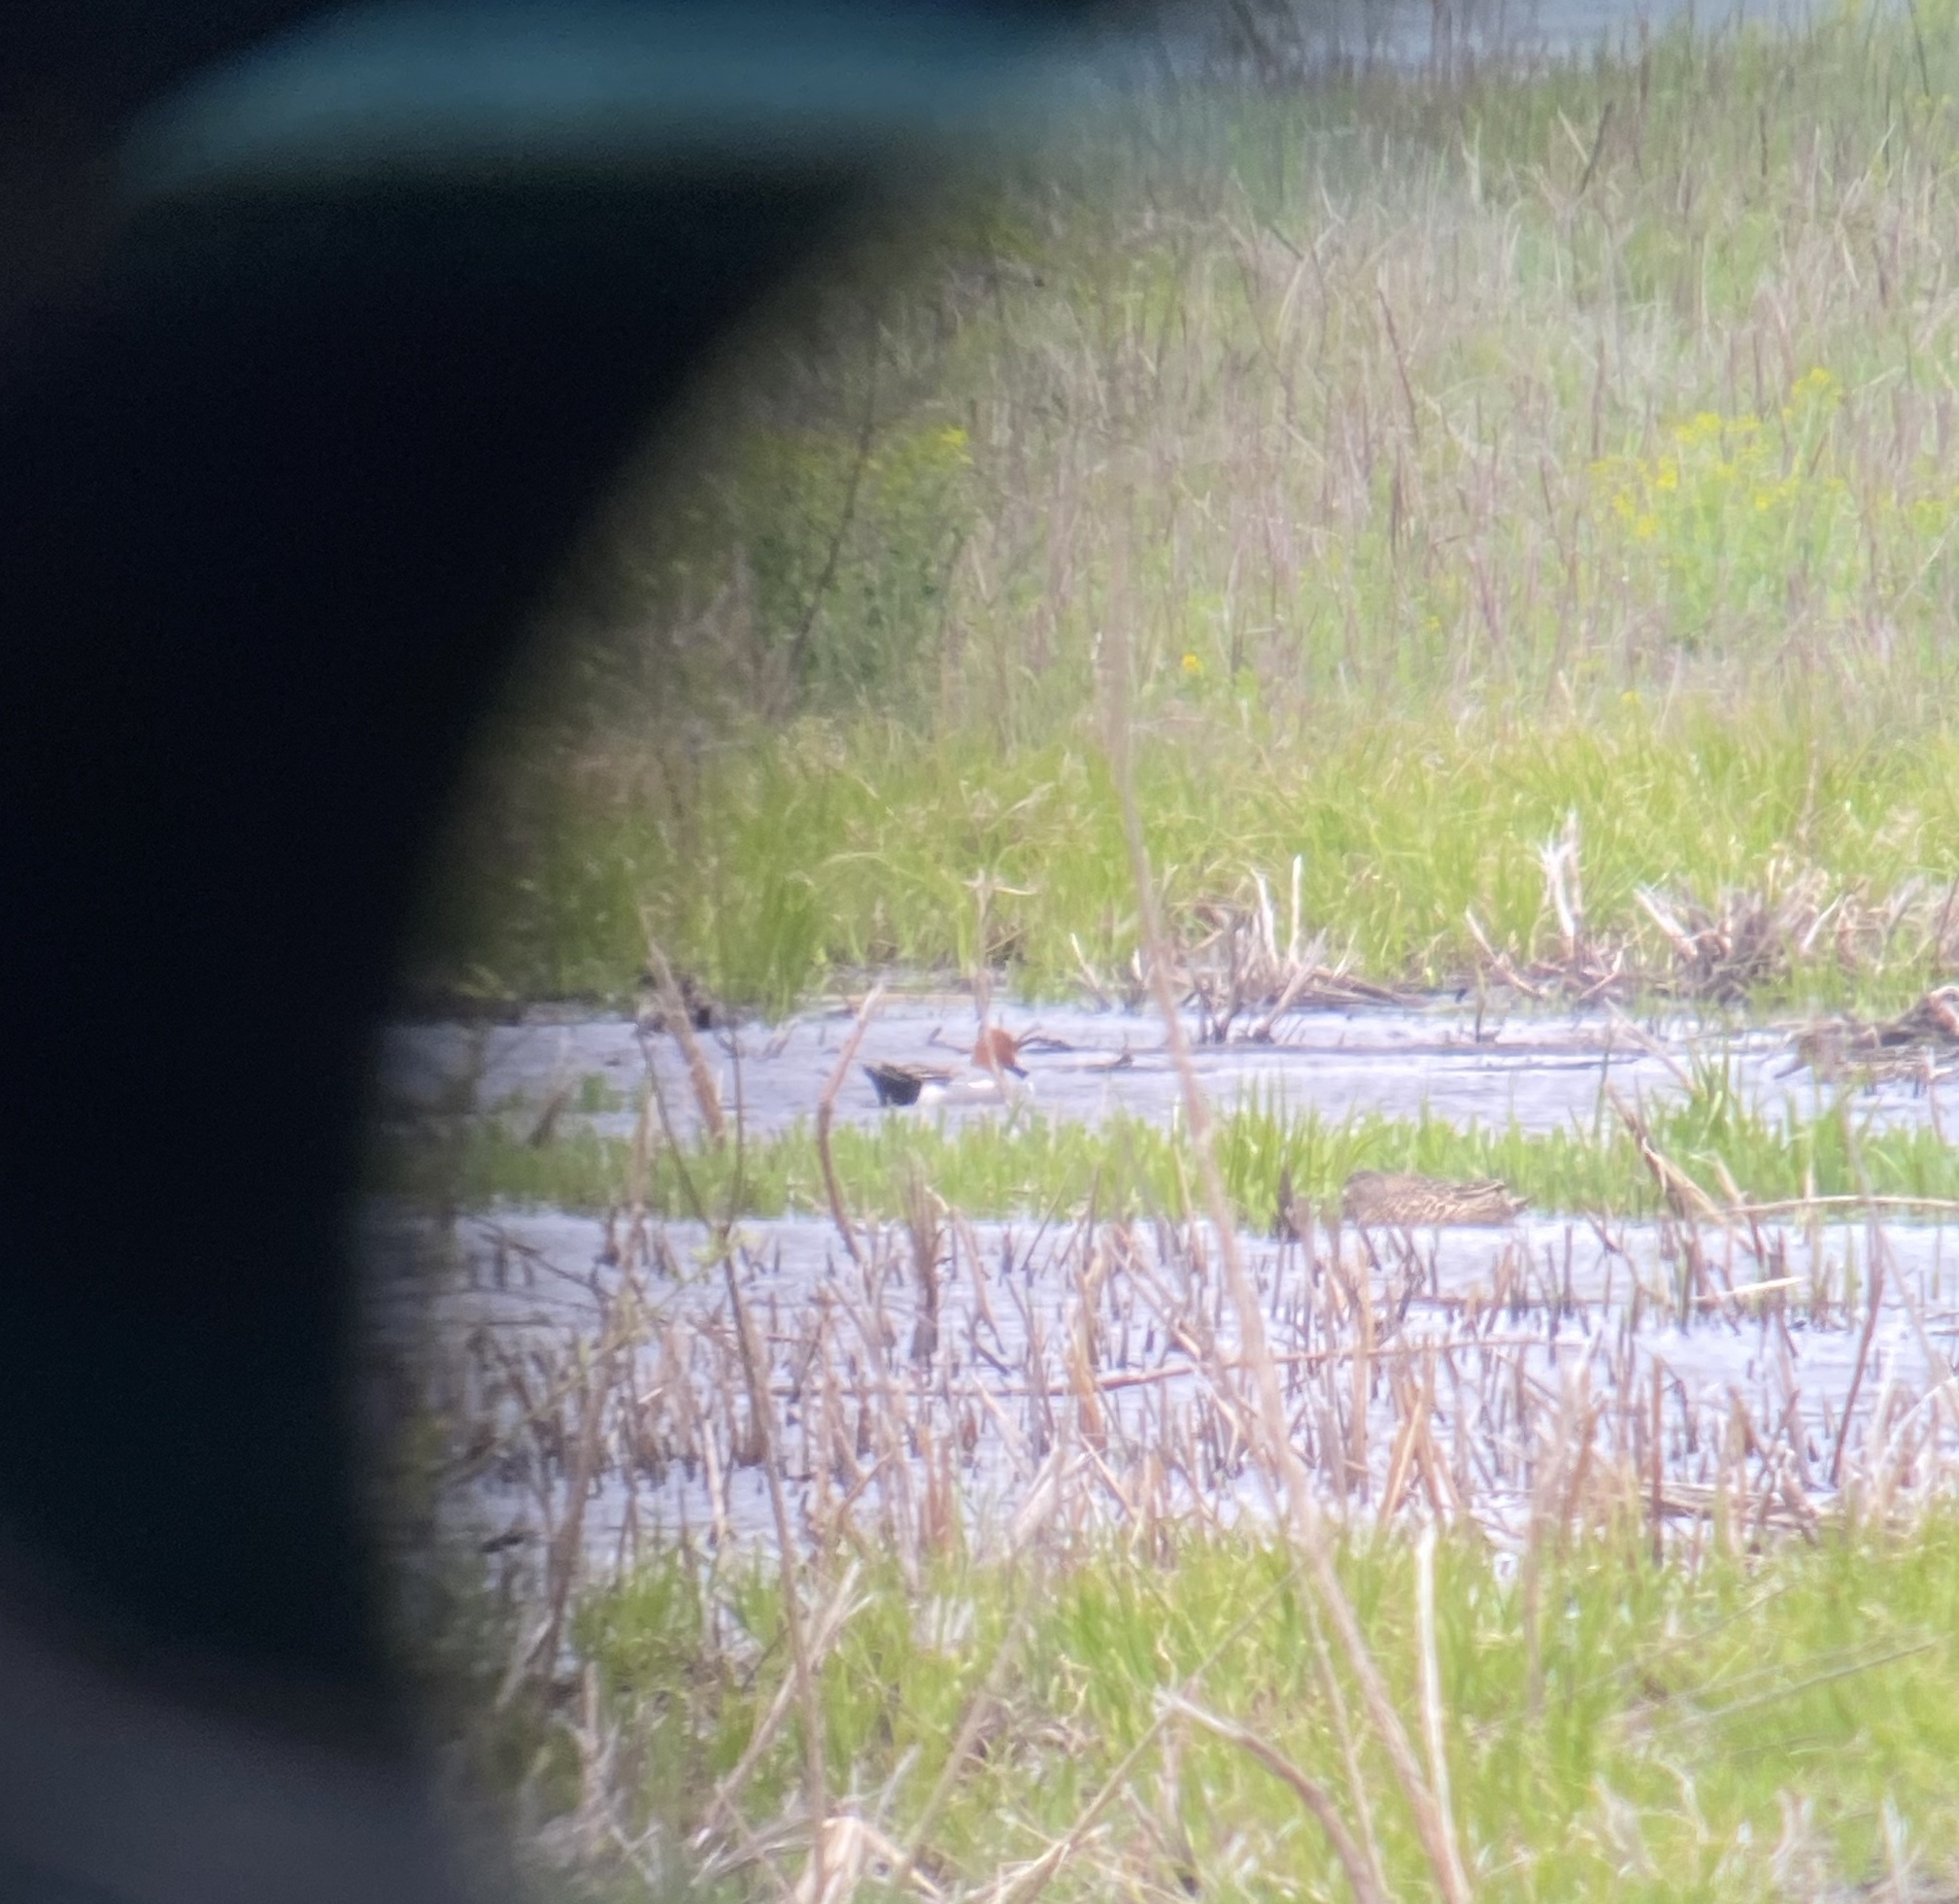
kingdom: Animalia
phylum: Chordata
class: Aves
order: Anseriformes
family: Anatidae
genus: Mareca
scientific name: Mareca penelope
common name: Eurasian wigeon
